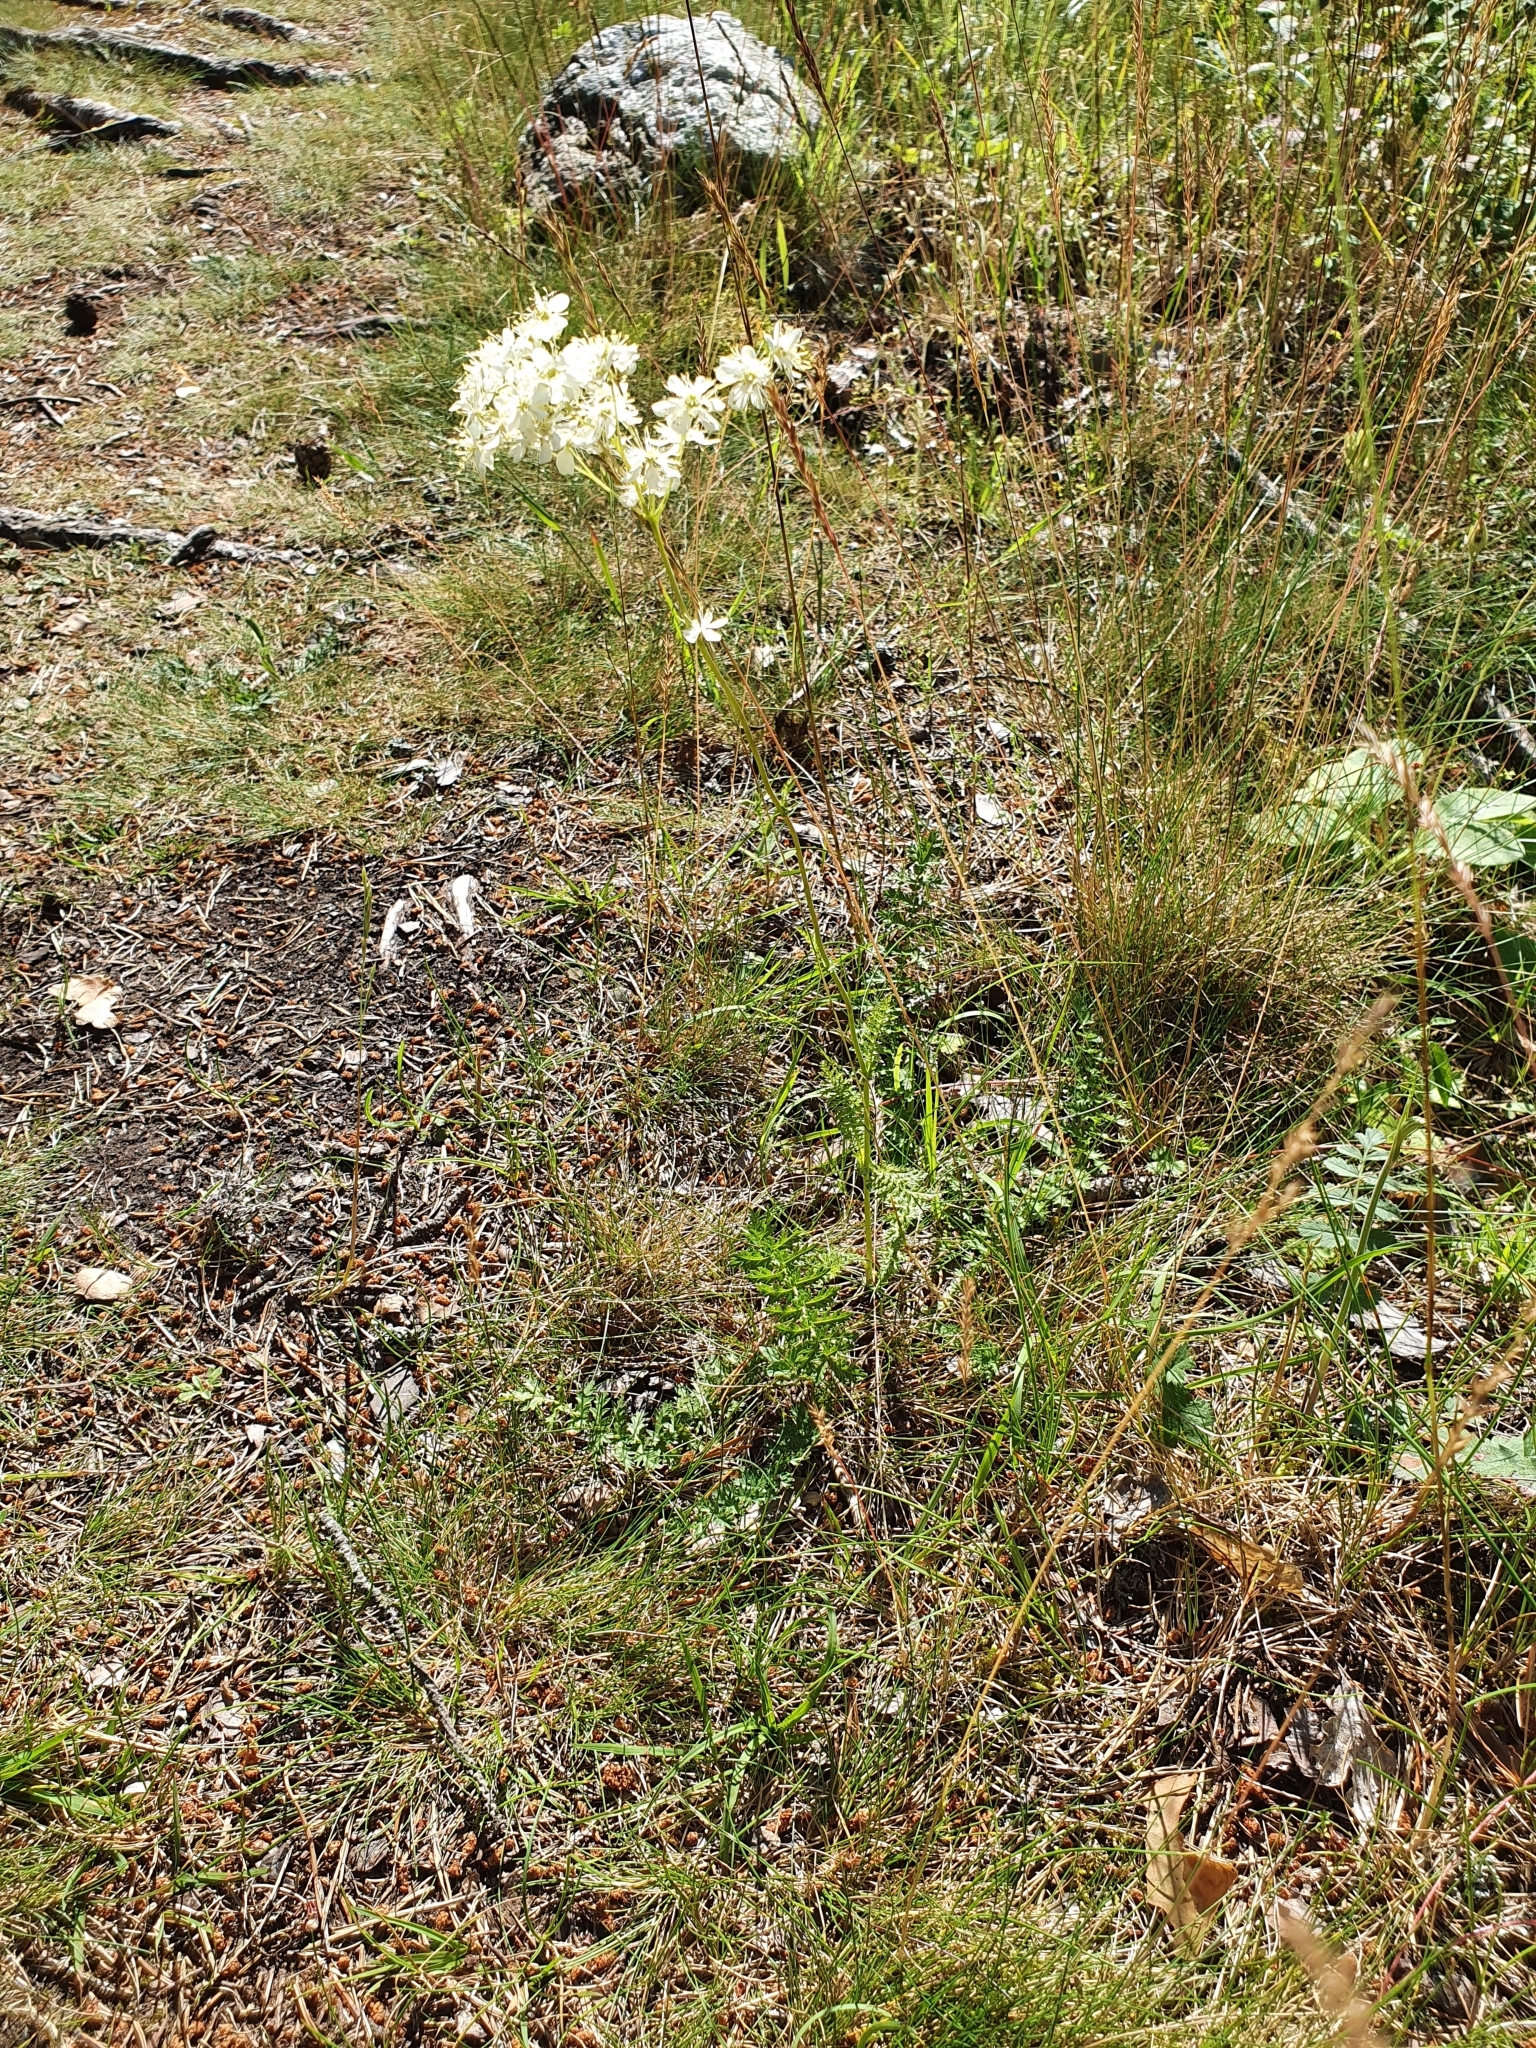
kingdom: Plantae
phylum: Tracheophyta
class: Magnoliopsida
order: Rosales
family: Rosaceae
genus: Filipendula
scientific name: Filipendula vulgaris
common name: Dropwort
